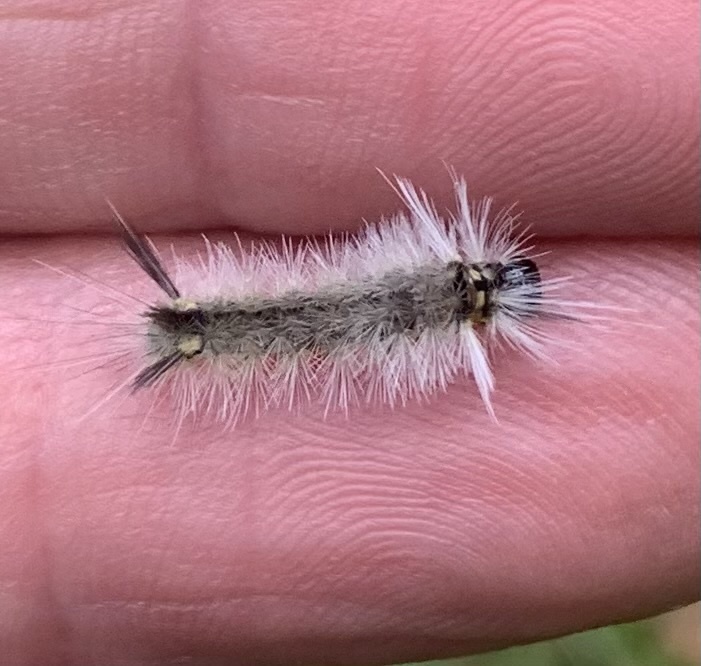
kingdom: Animalia
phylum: Arthropoda
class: Insecta
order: Lepidoptera
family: Erebidae
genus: Halysidota
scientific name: Halysidota tessellaris
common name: Banded tussock moth
